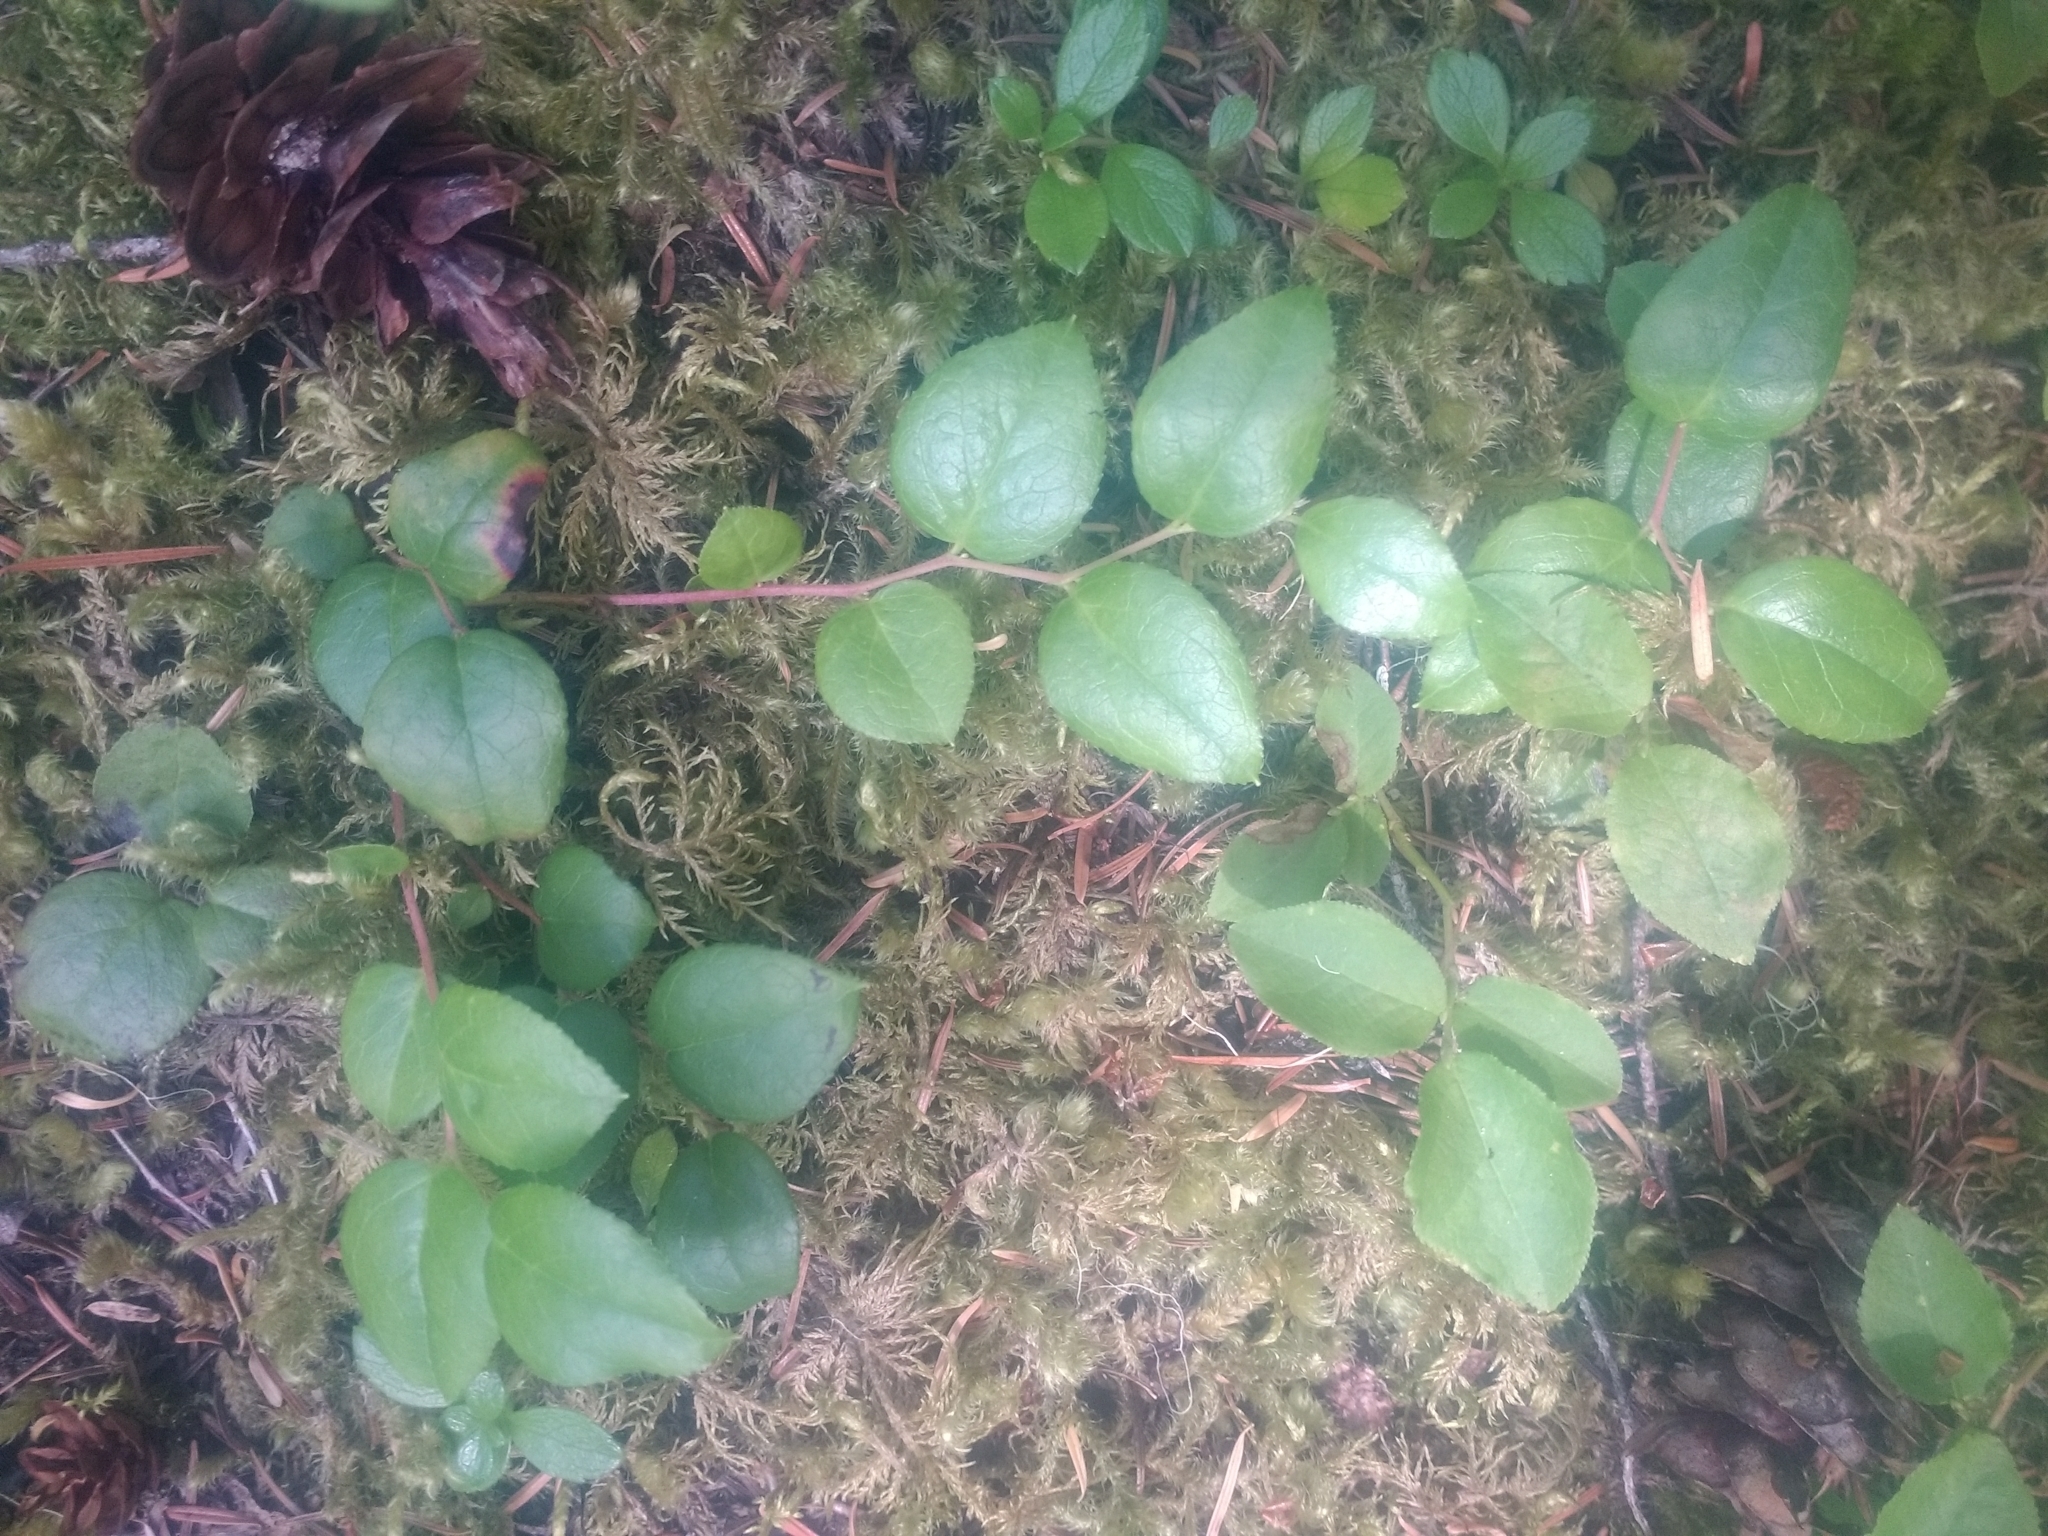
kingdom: Plantae
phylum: Tracheophyta
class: Magnoliopsida
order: Ericales
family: Ericaceae
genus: Gaultheria
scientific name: Gaultheria ovatifolia
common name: Oregon wintergreen
